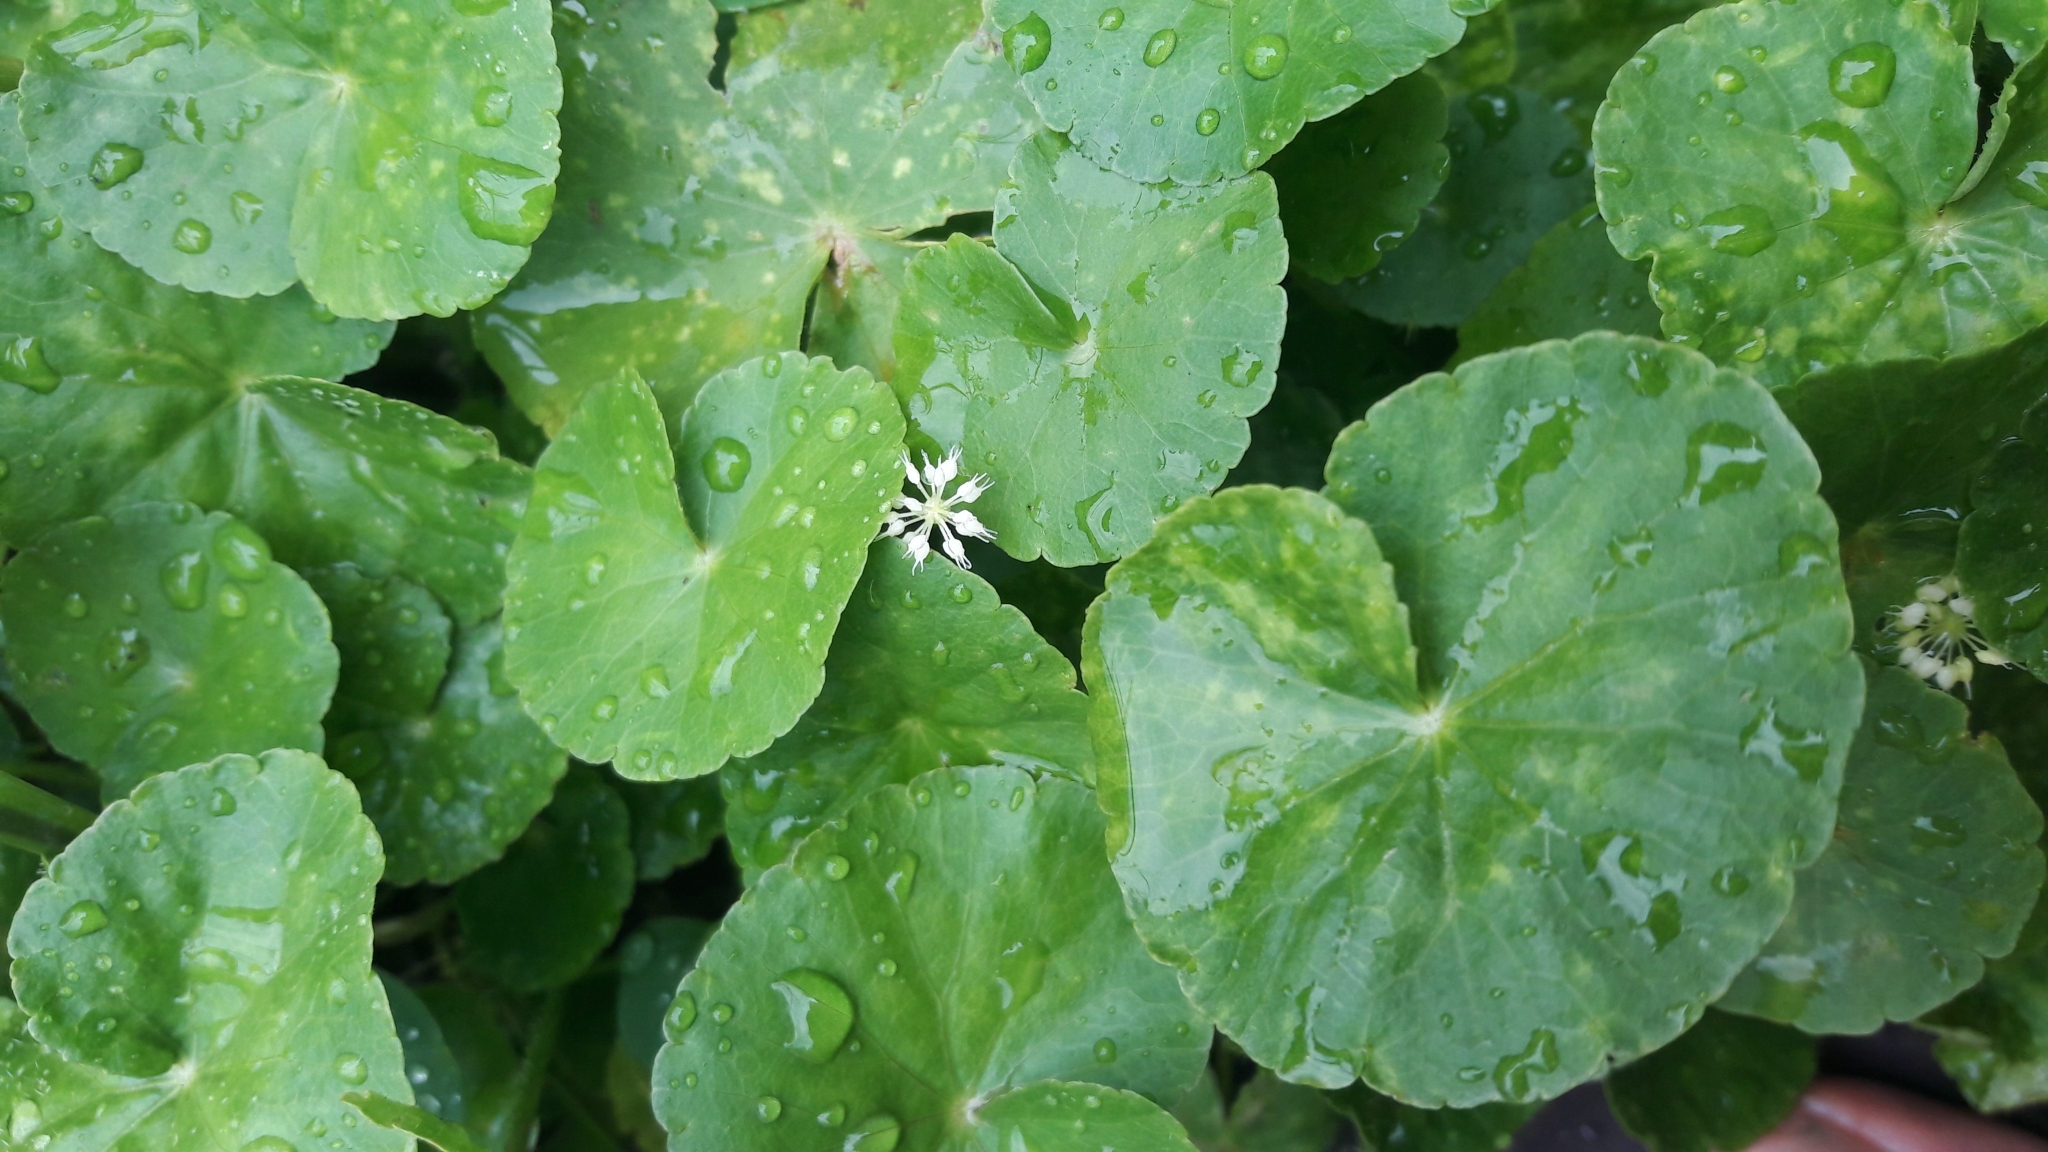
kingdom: Plantae
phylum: Tracheophyta
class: Magnoliopsida
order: Apiales
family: Araliaceae
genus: Hydrocotyle
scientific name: Hydrocotyle leucocephala
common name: Brazilian pennywort
